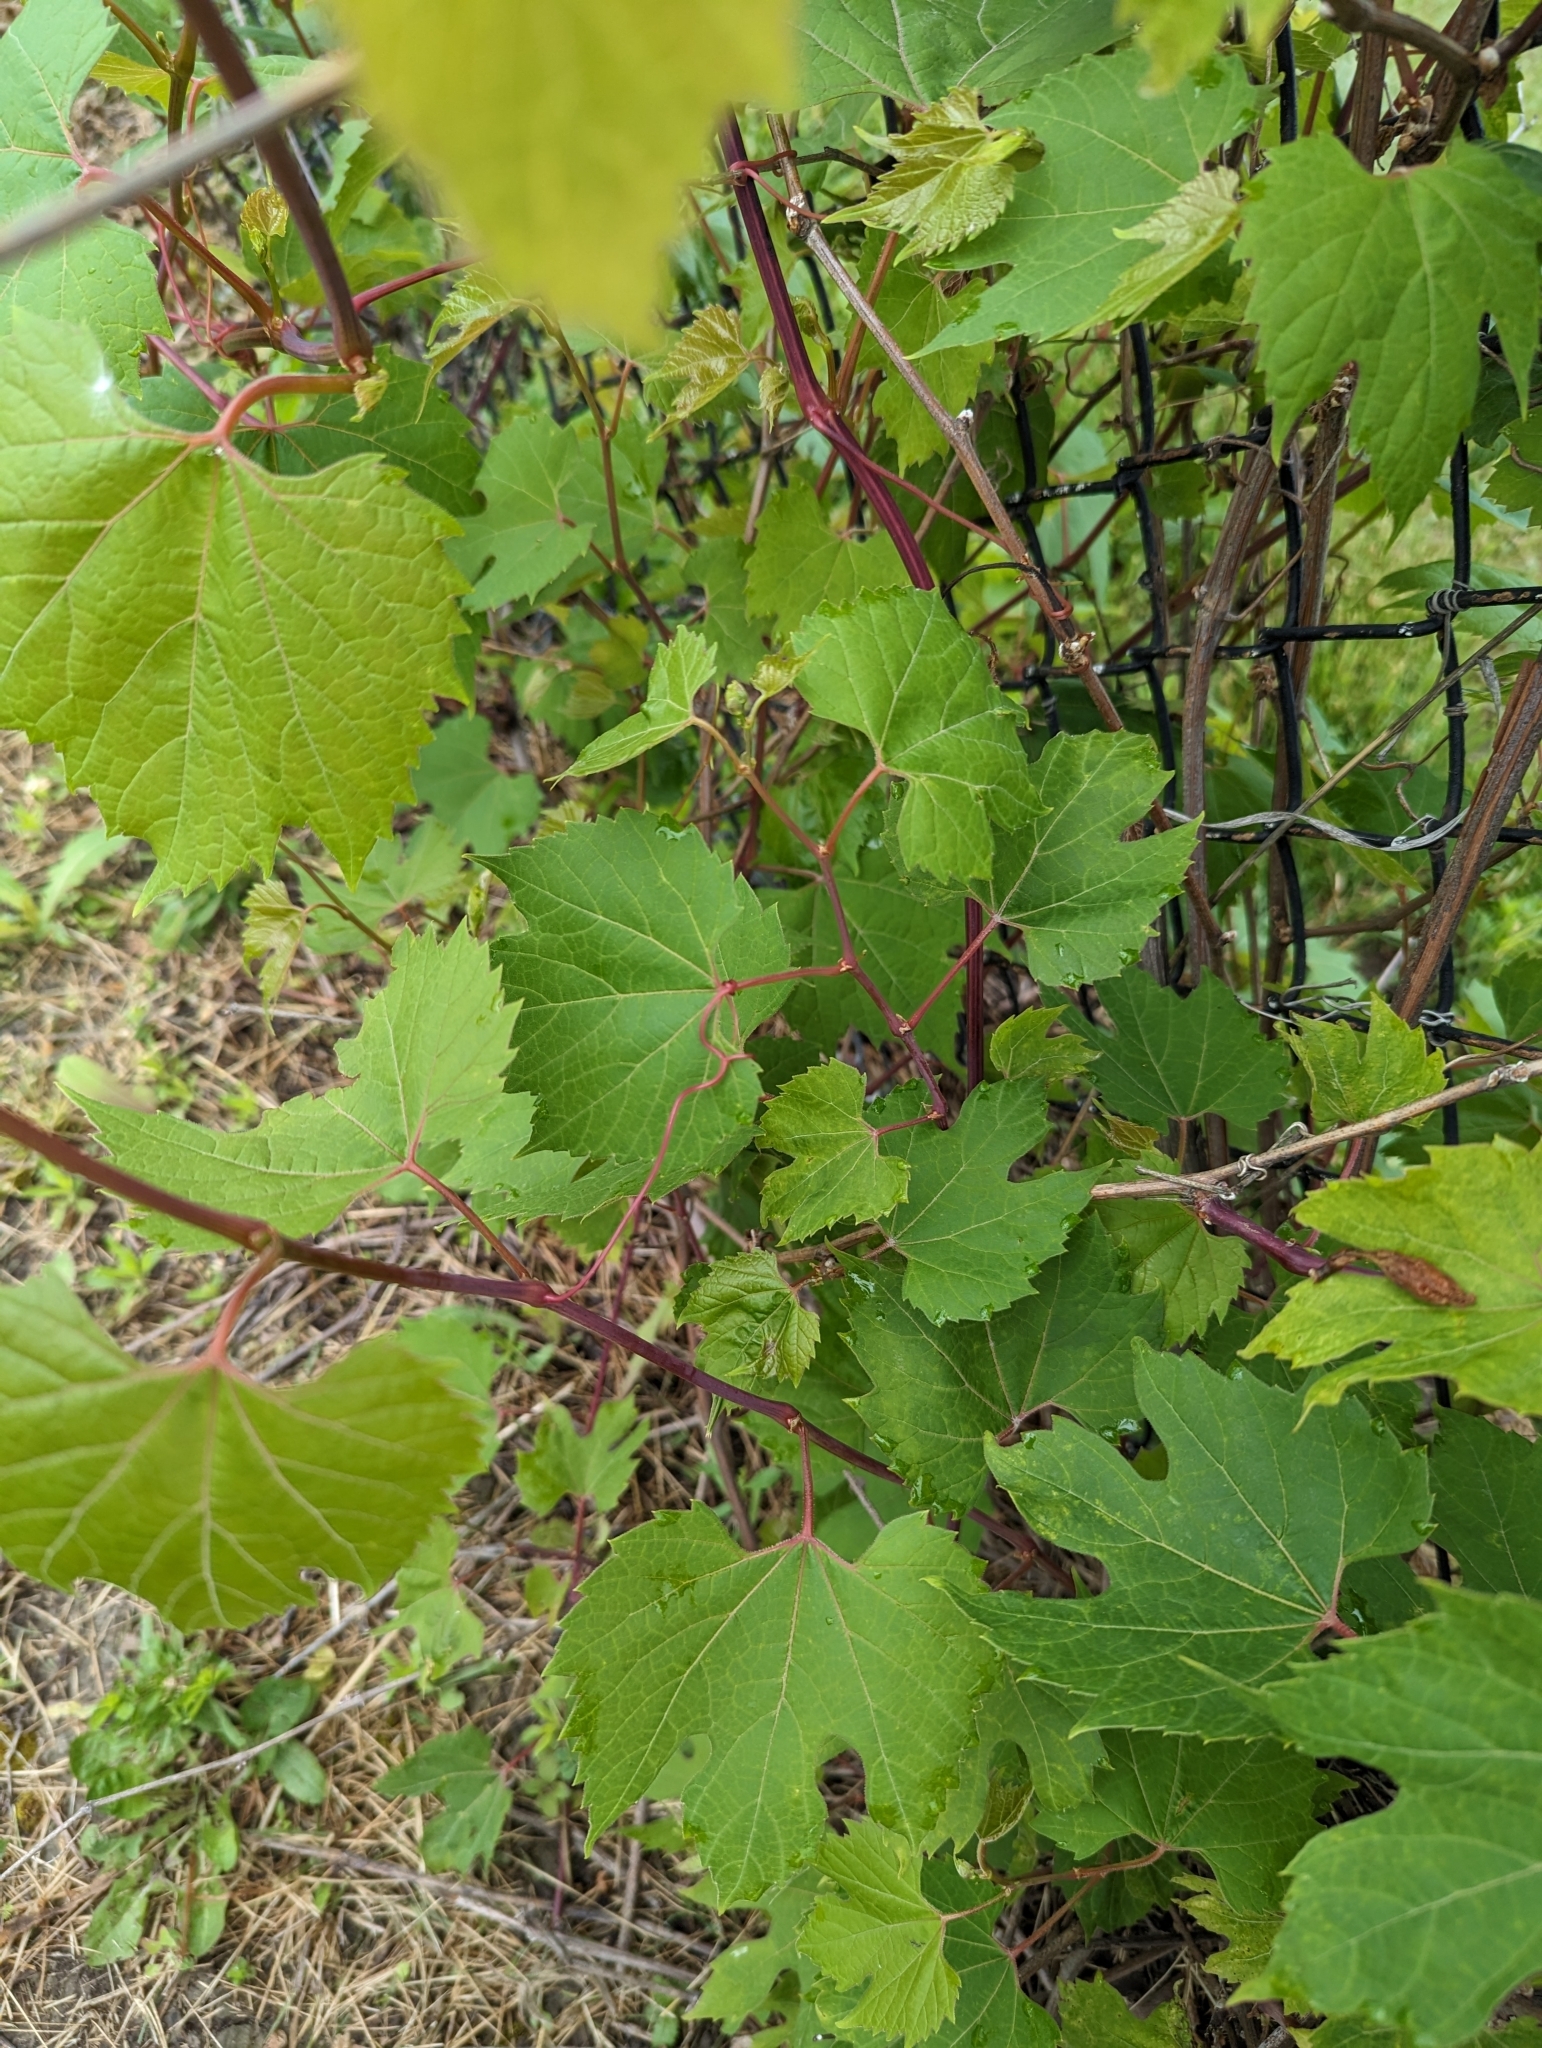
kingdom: Plantae
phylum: Tracheophyta
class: Magnoliopsida
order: Vitales
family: Vitaceae
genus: Vitis
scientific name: Vitis riparia
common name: Frost grape
